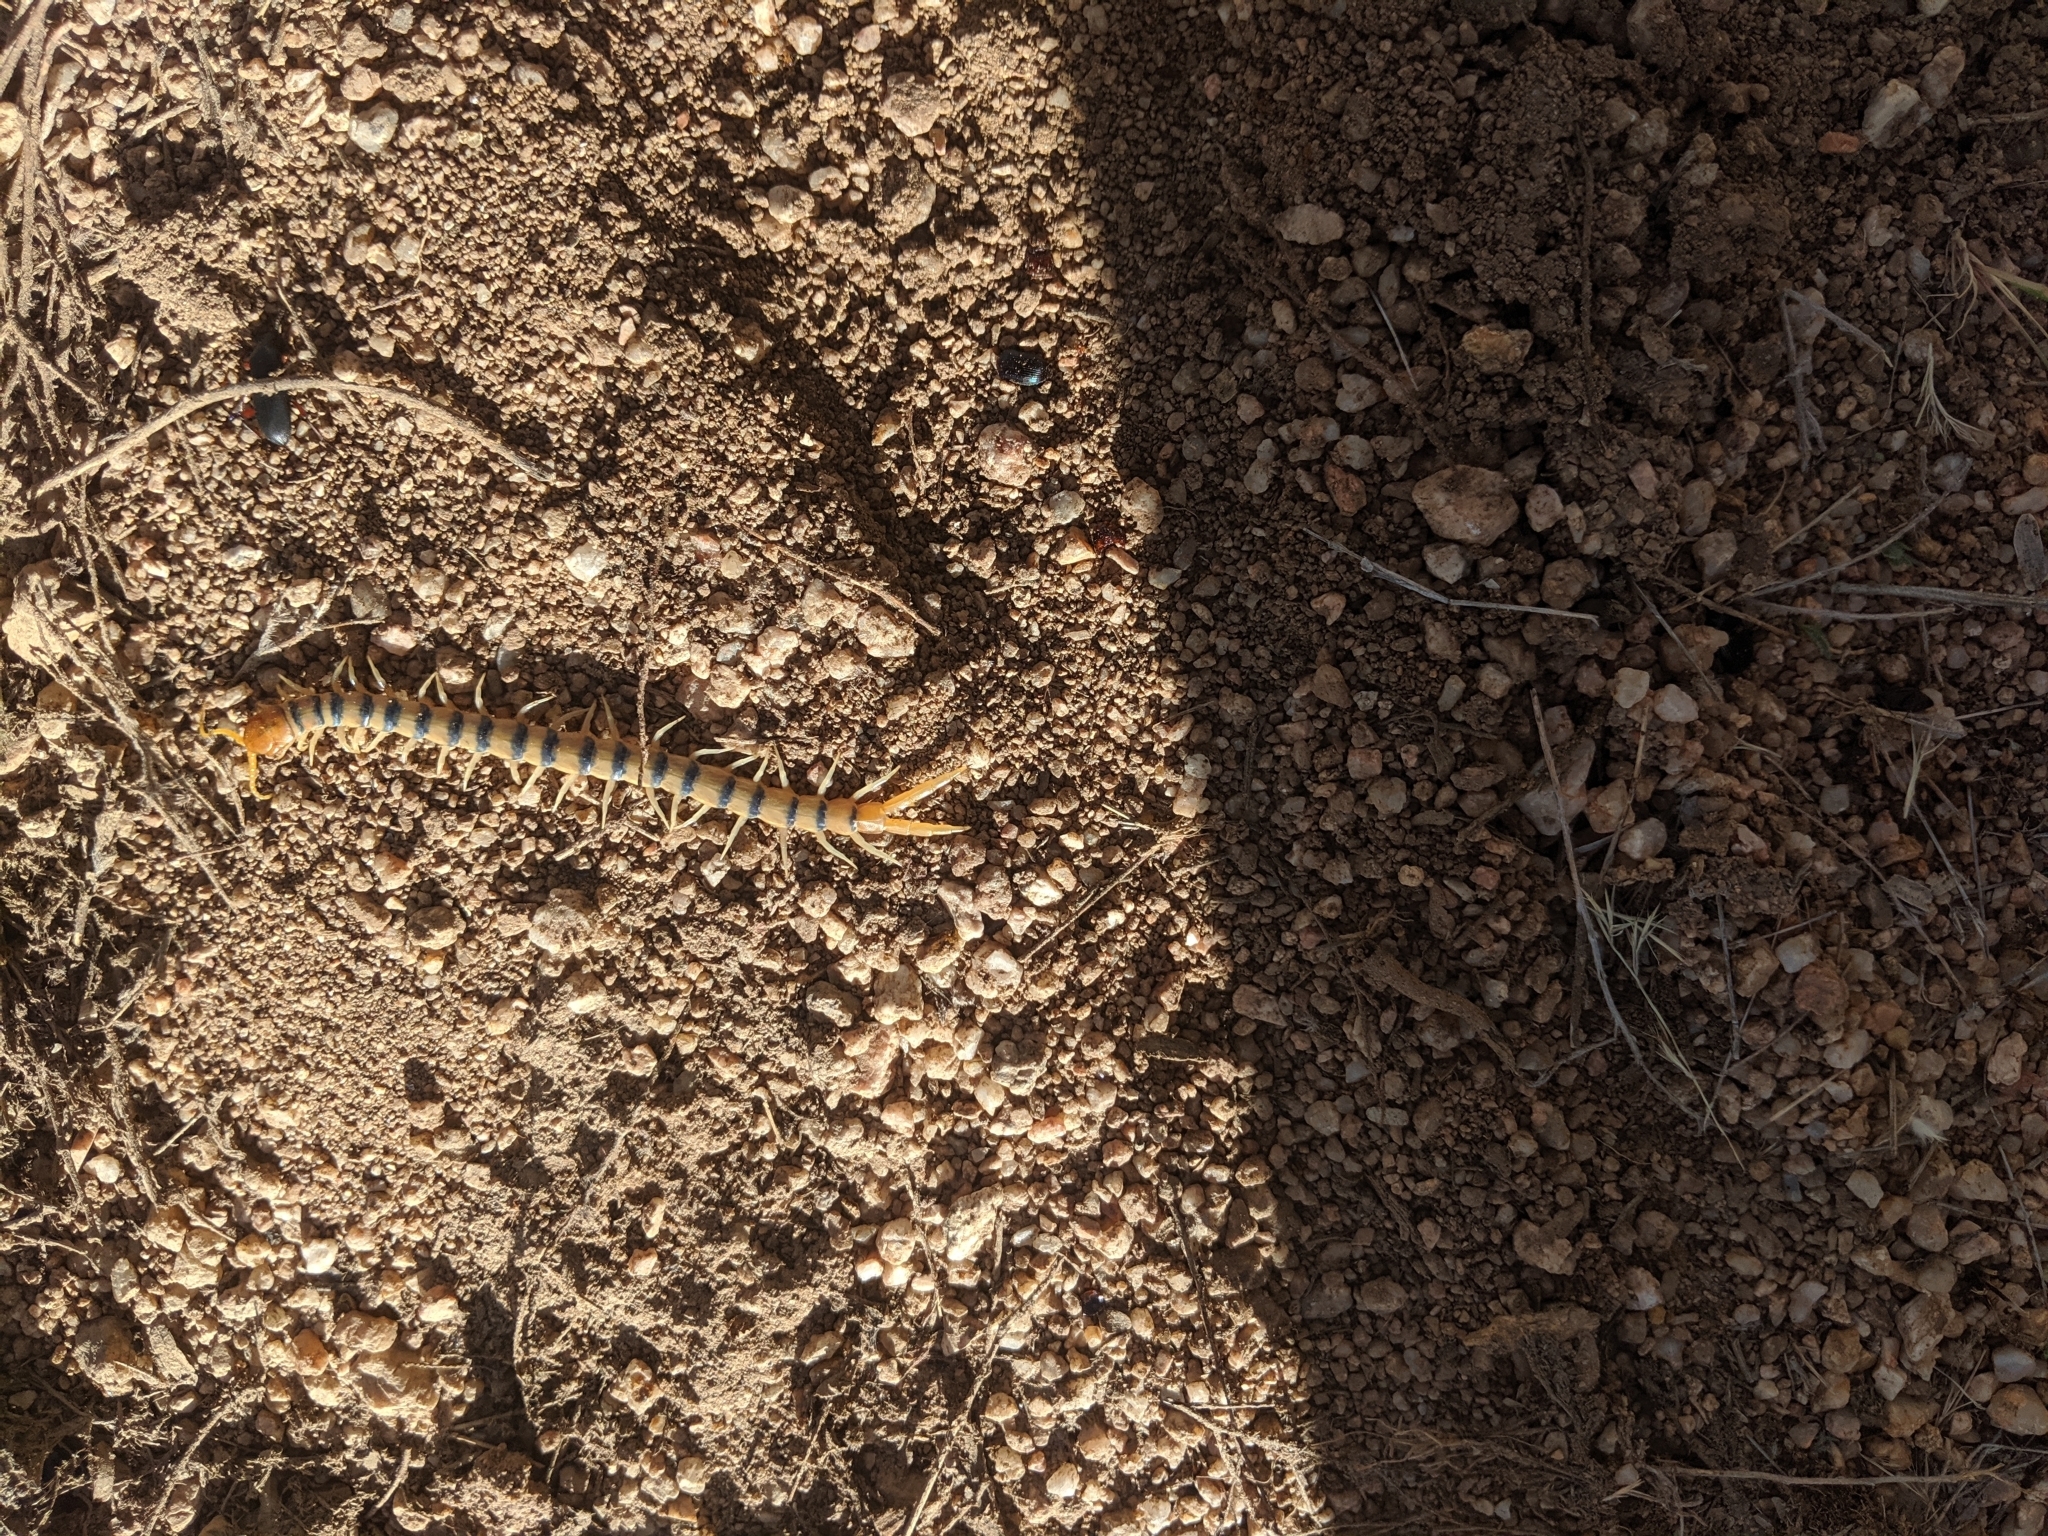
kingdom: Animalia
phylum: Arthropoda
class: Chilopoda
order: Scolopendromorpha
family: Scolopendridae
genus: Scolopendra
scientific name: Scolopendra polymorpha
